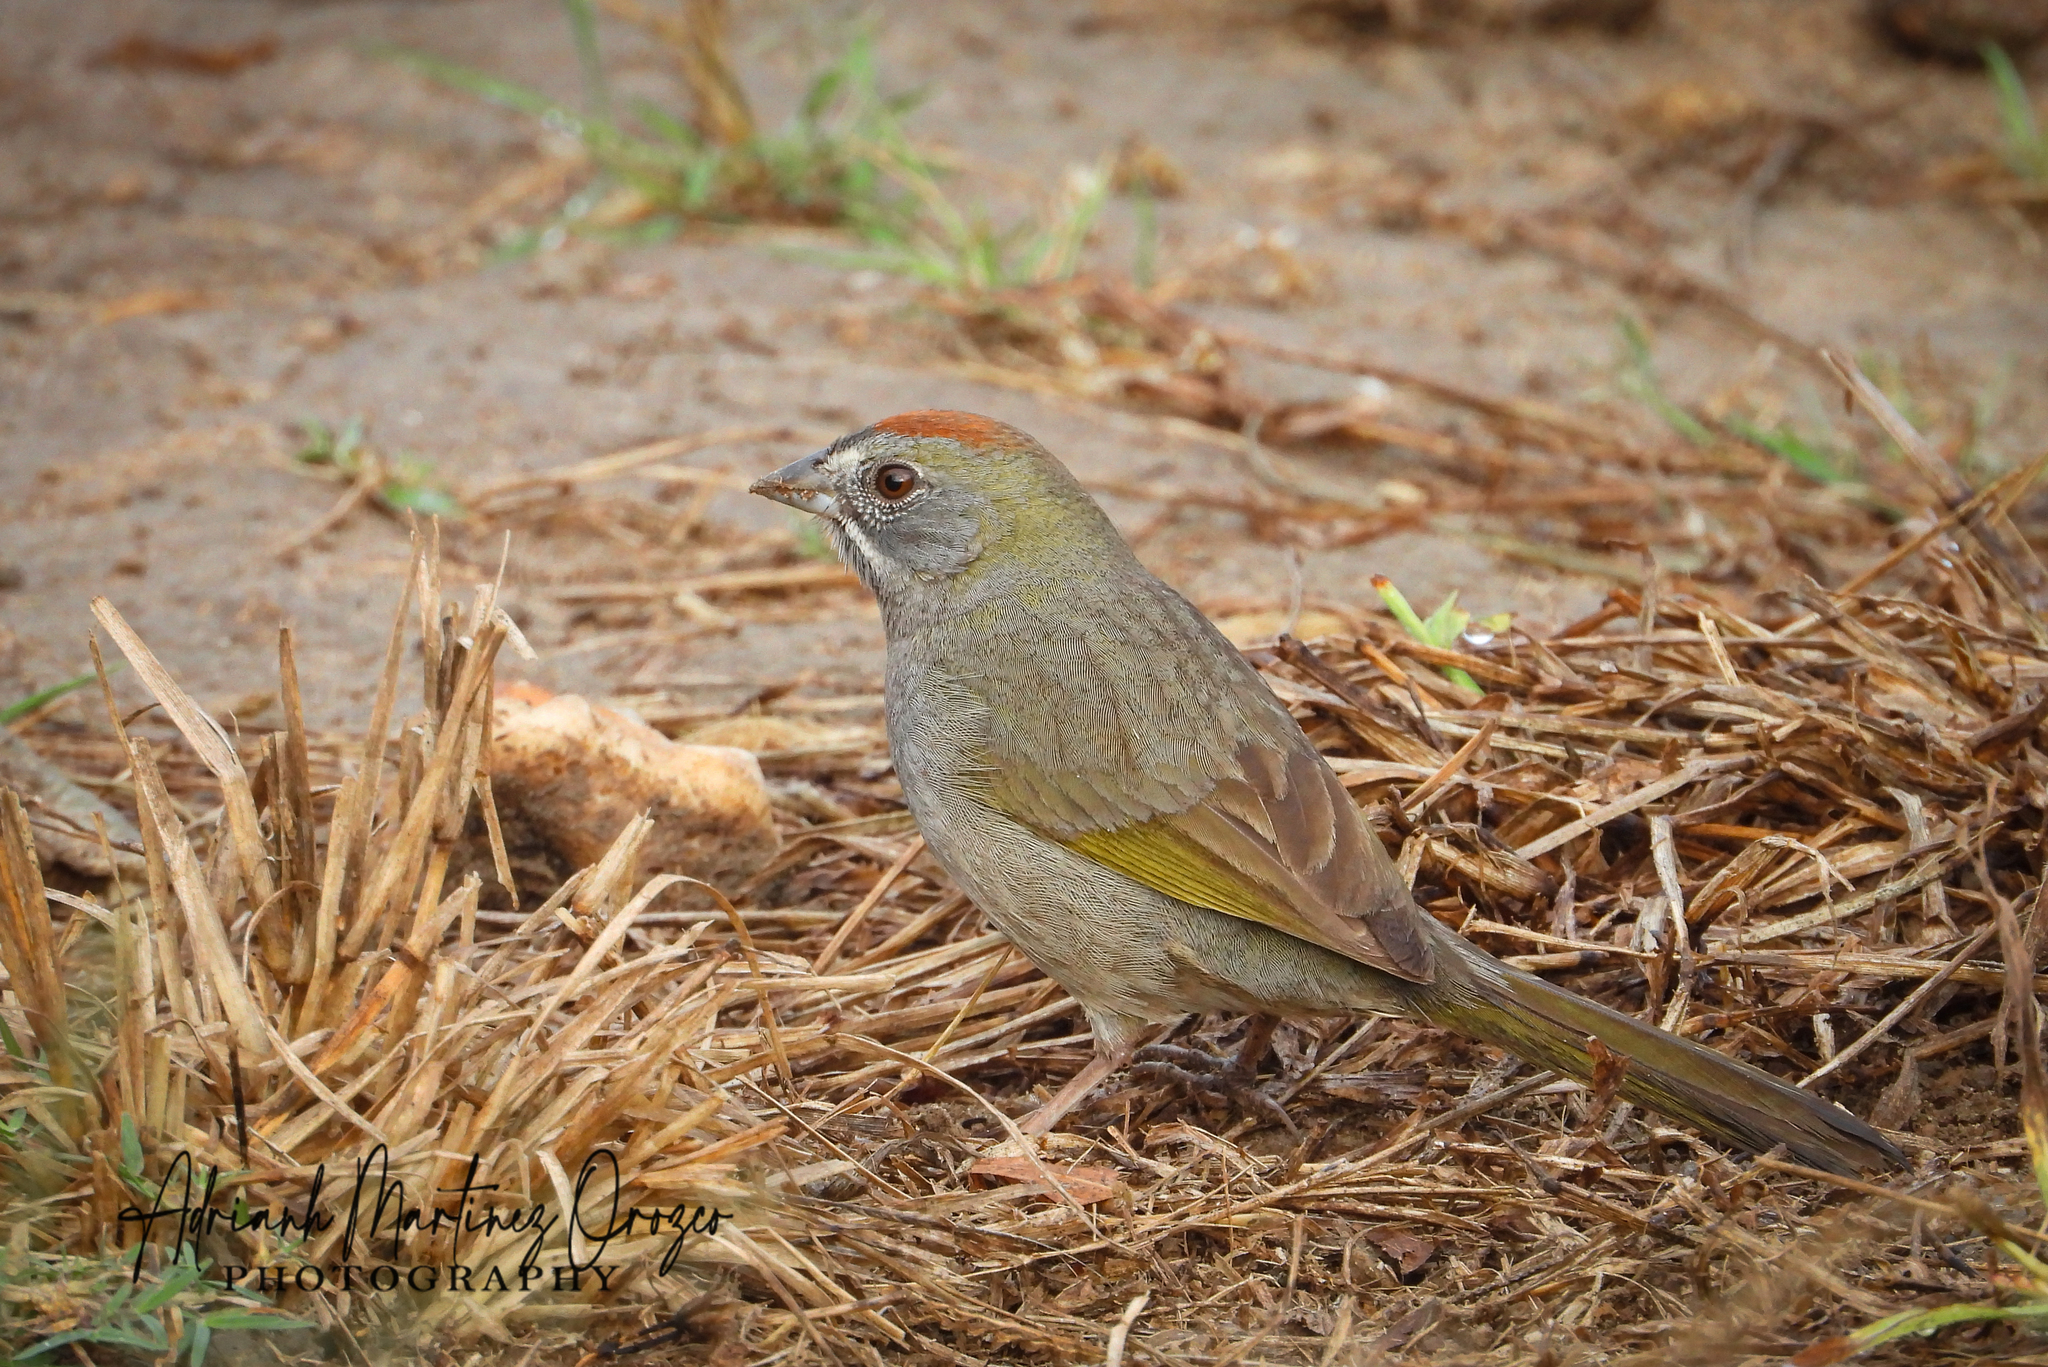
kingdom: Animalia
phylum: Chordata
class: Aves
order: Passeriformes
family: Passerellidae
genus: Pipilo
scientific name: Pipilo chlorurus
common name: Green-tailed towhee
